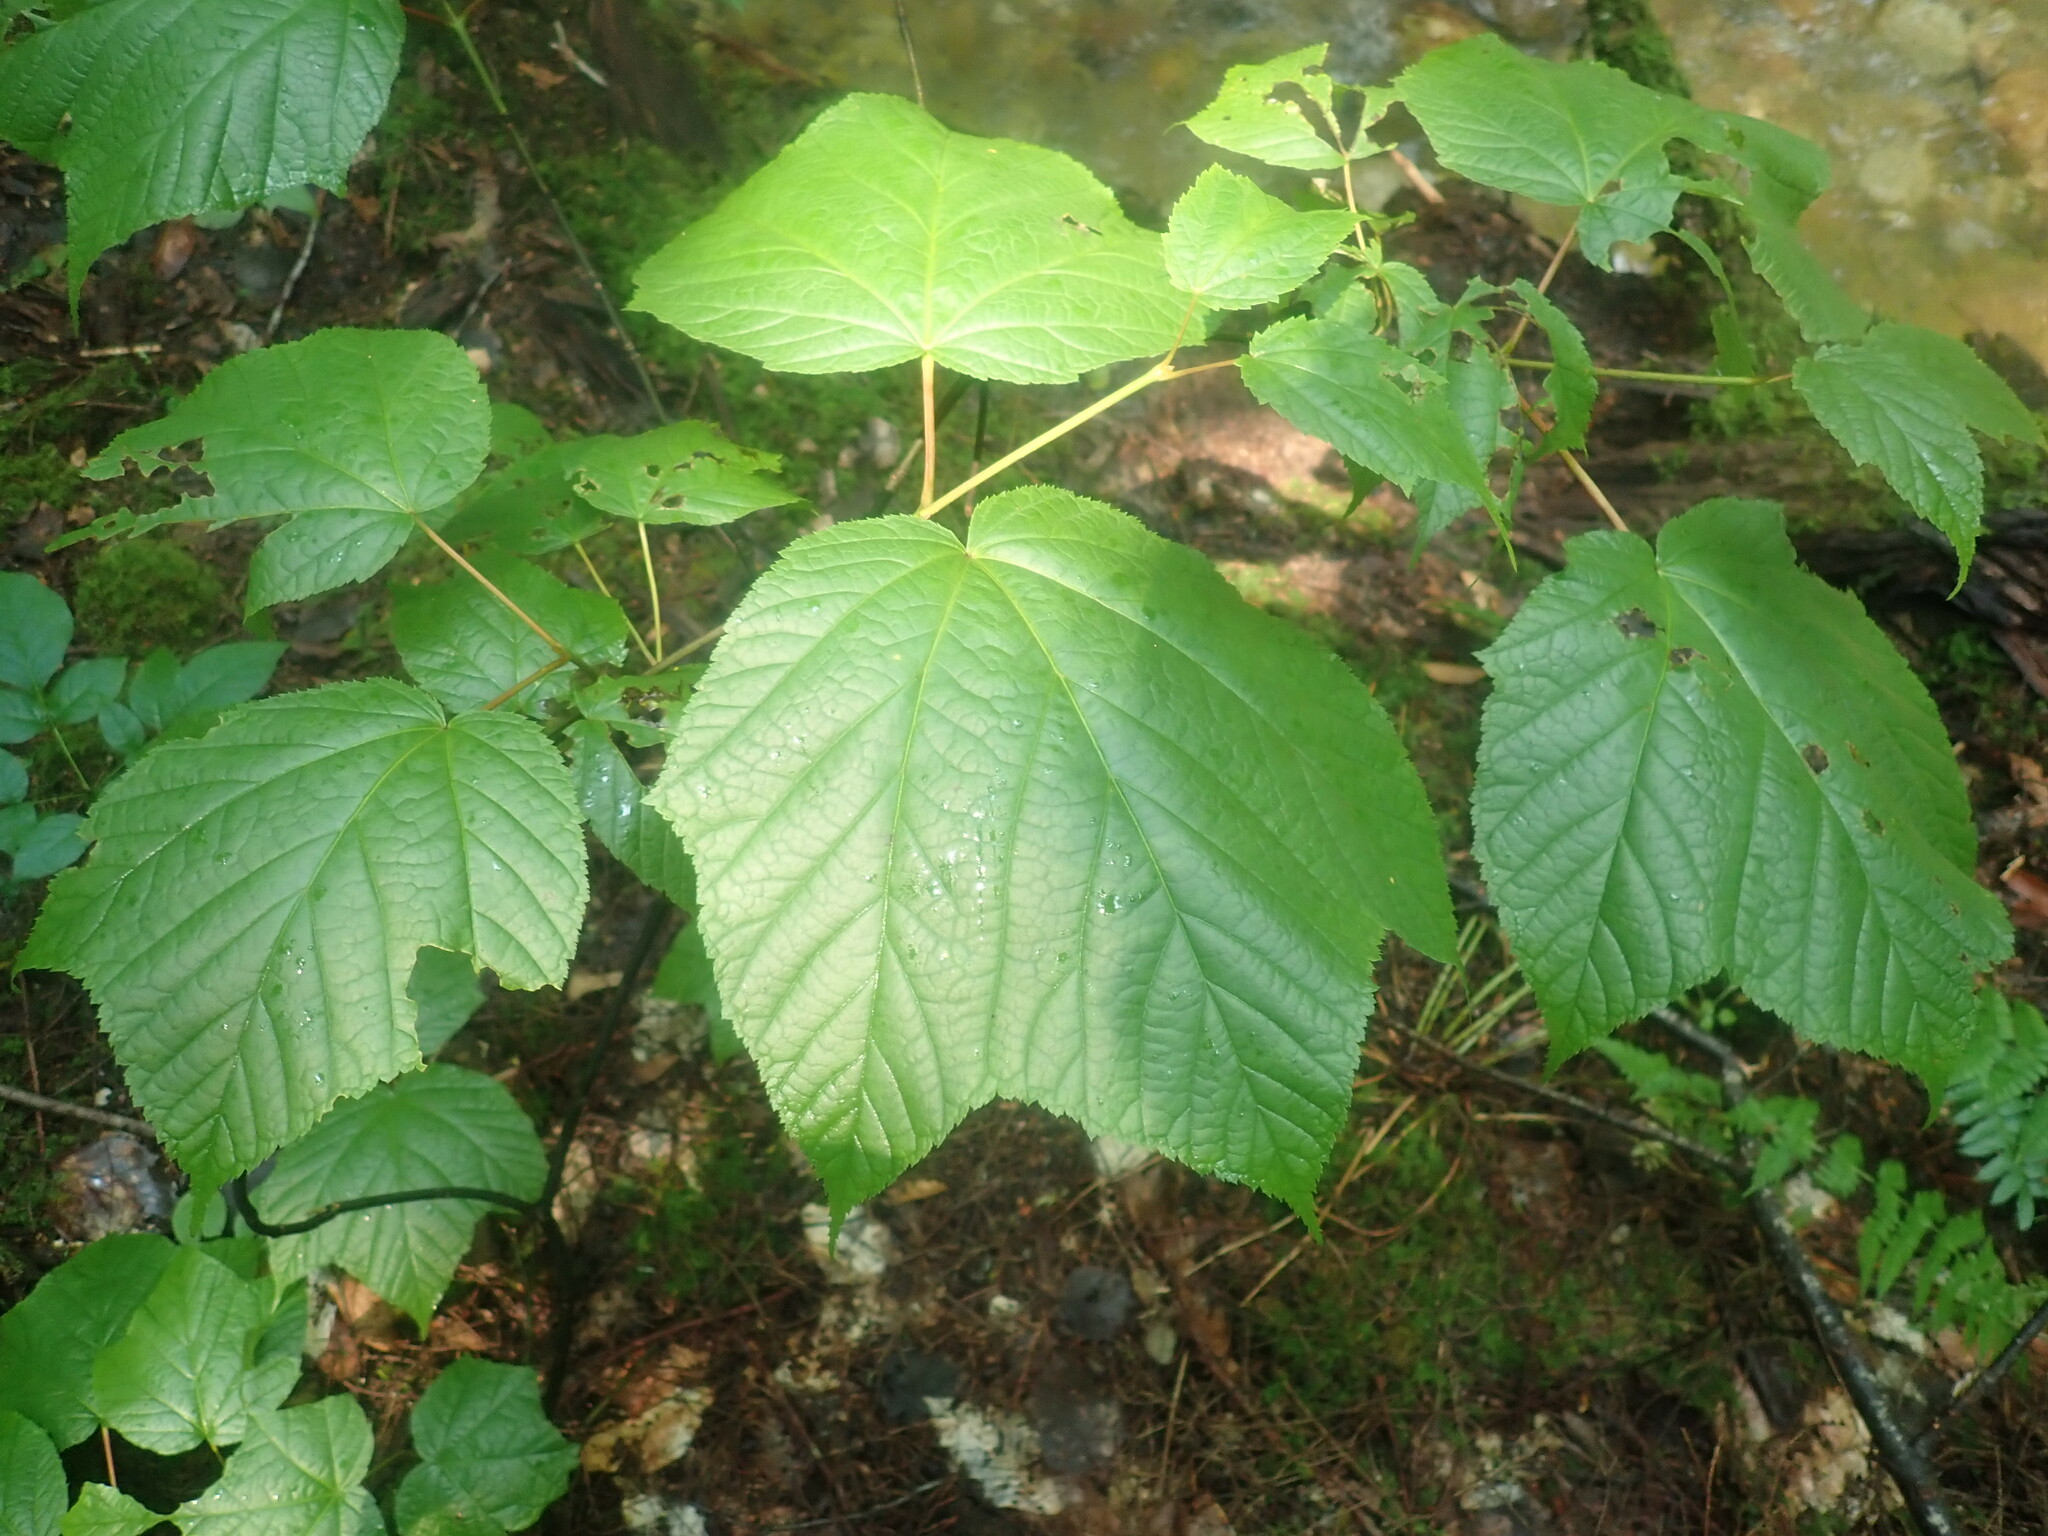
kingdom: Plantae
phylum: Tracheophyta
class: Magnoliopsida
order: Sapindales
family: Sapindaceae
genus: Acer
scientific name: Acer pensylvanicum
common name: Moosewood
